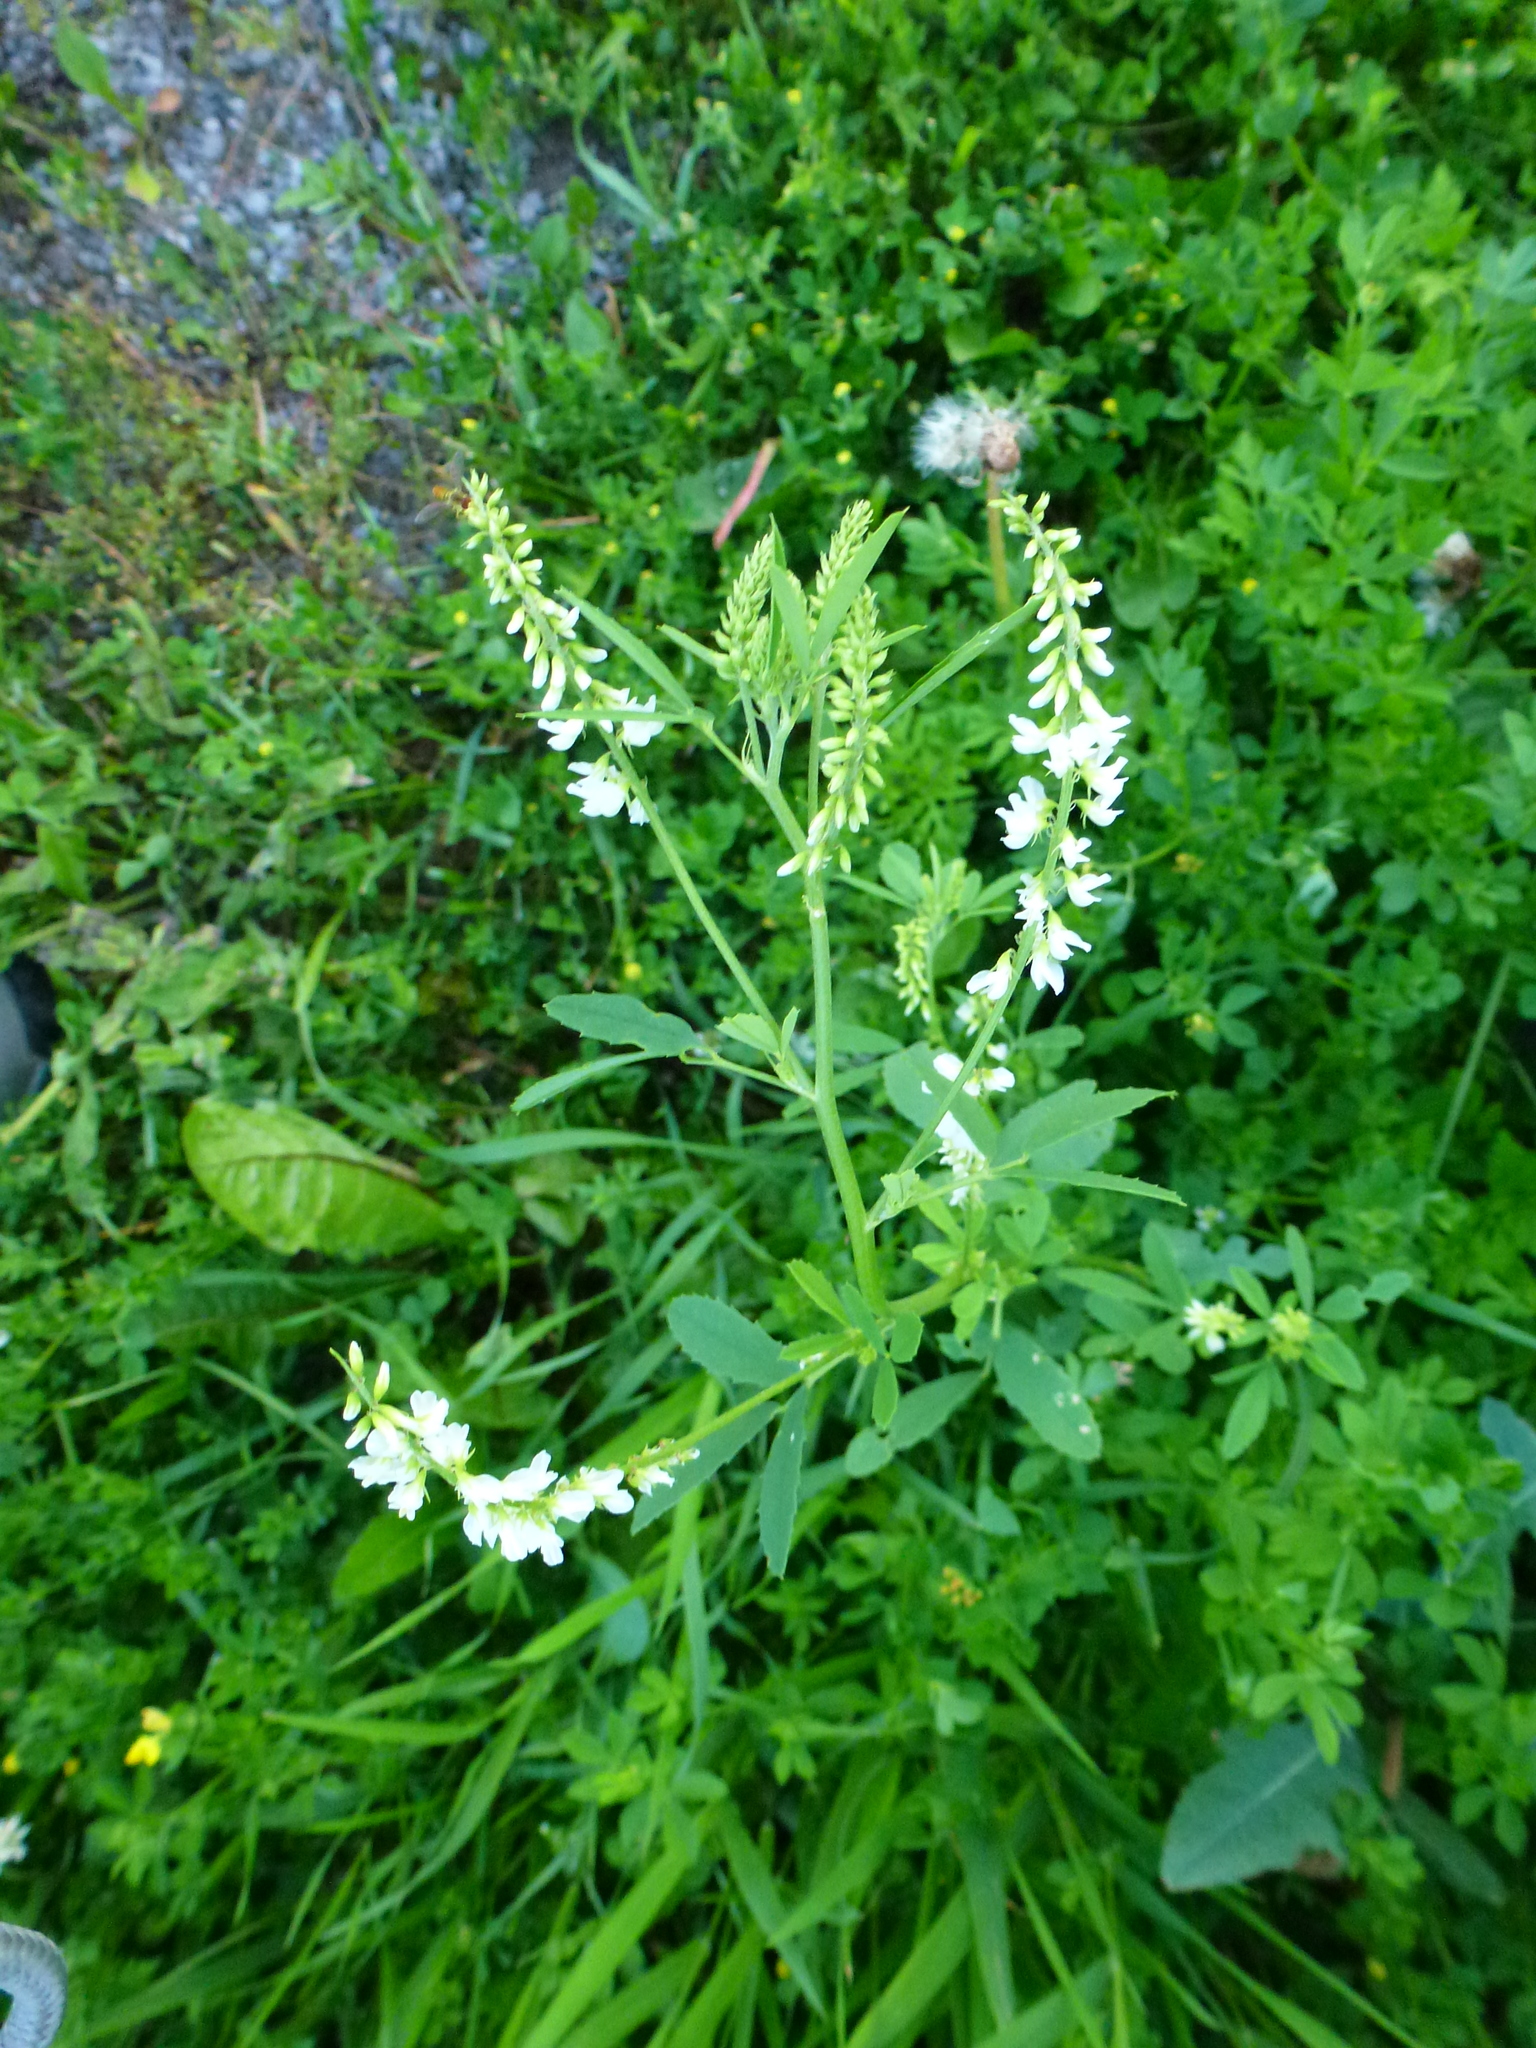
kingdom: Plantae
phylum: Tracheophyta
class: Magnoliopsida
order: Fabales
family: Fabaceae
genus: Melilotus
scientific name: Melilotus albus
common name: White melilot
